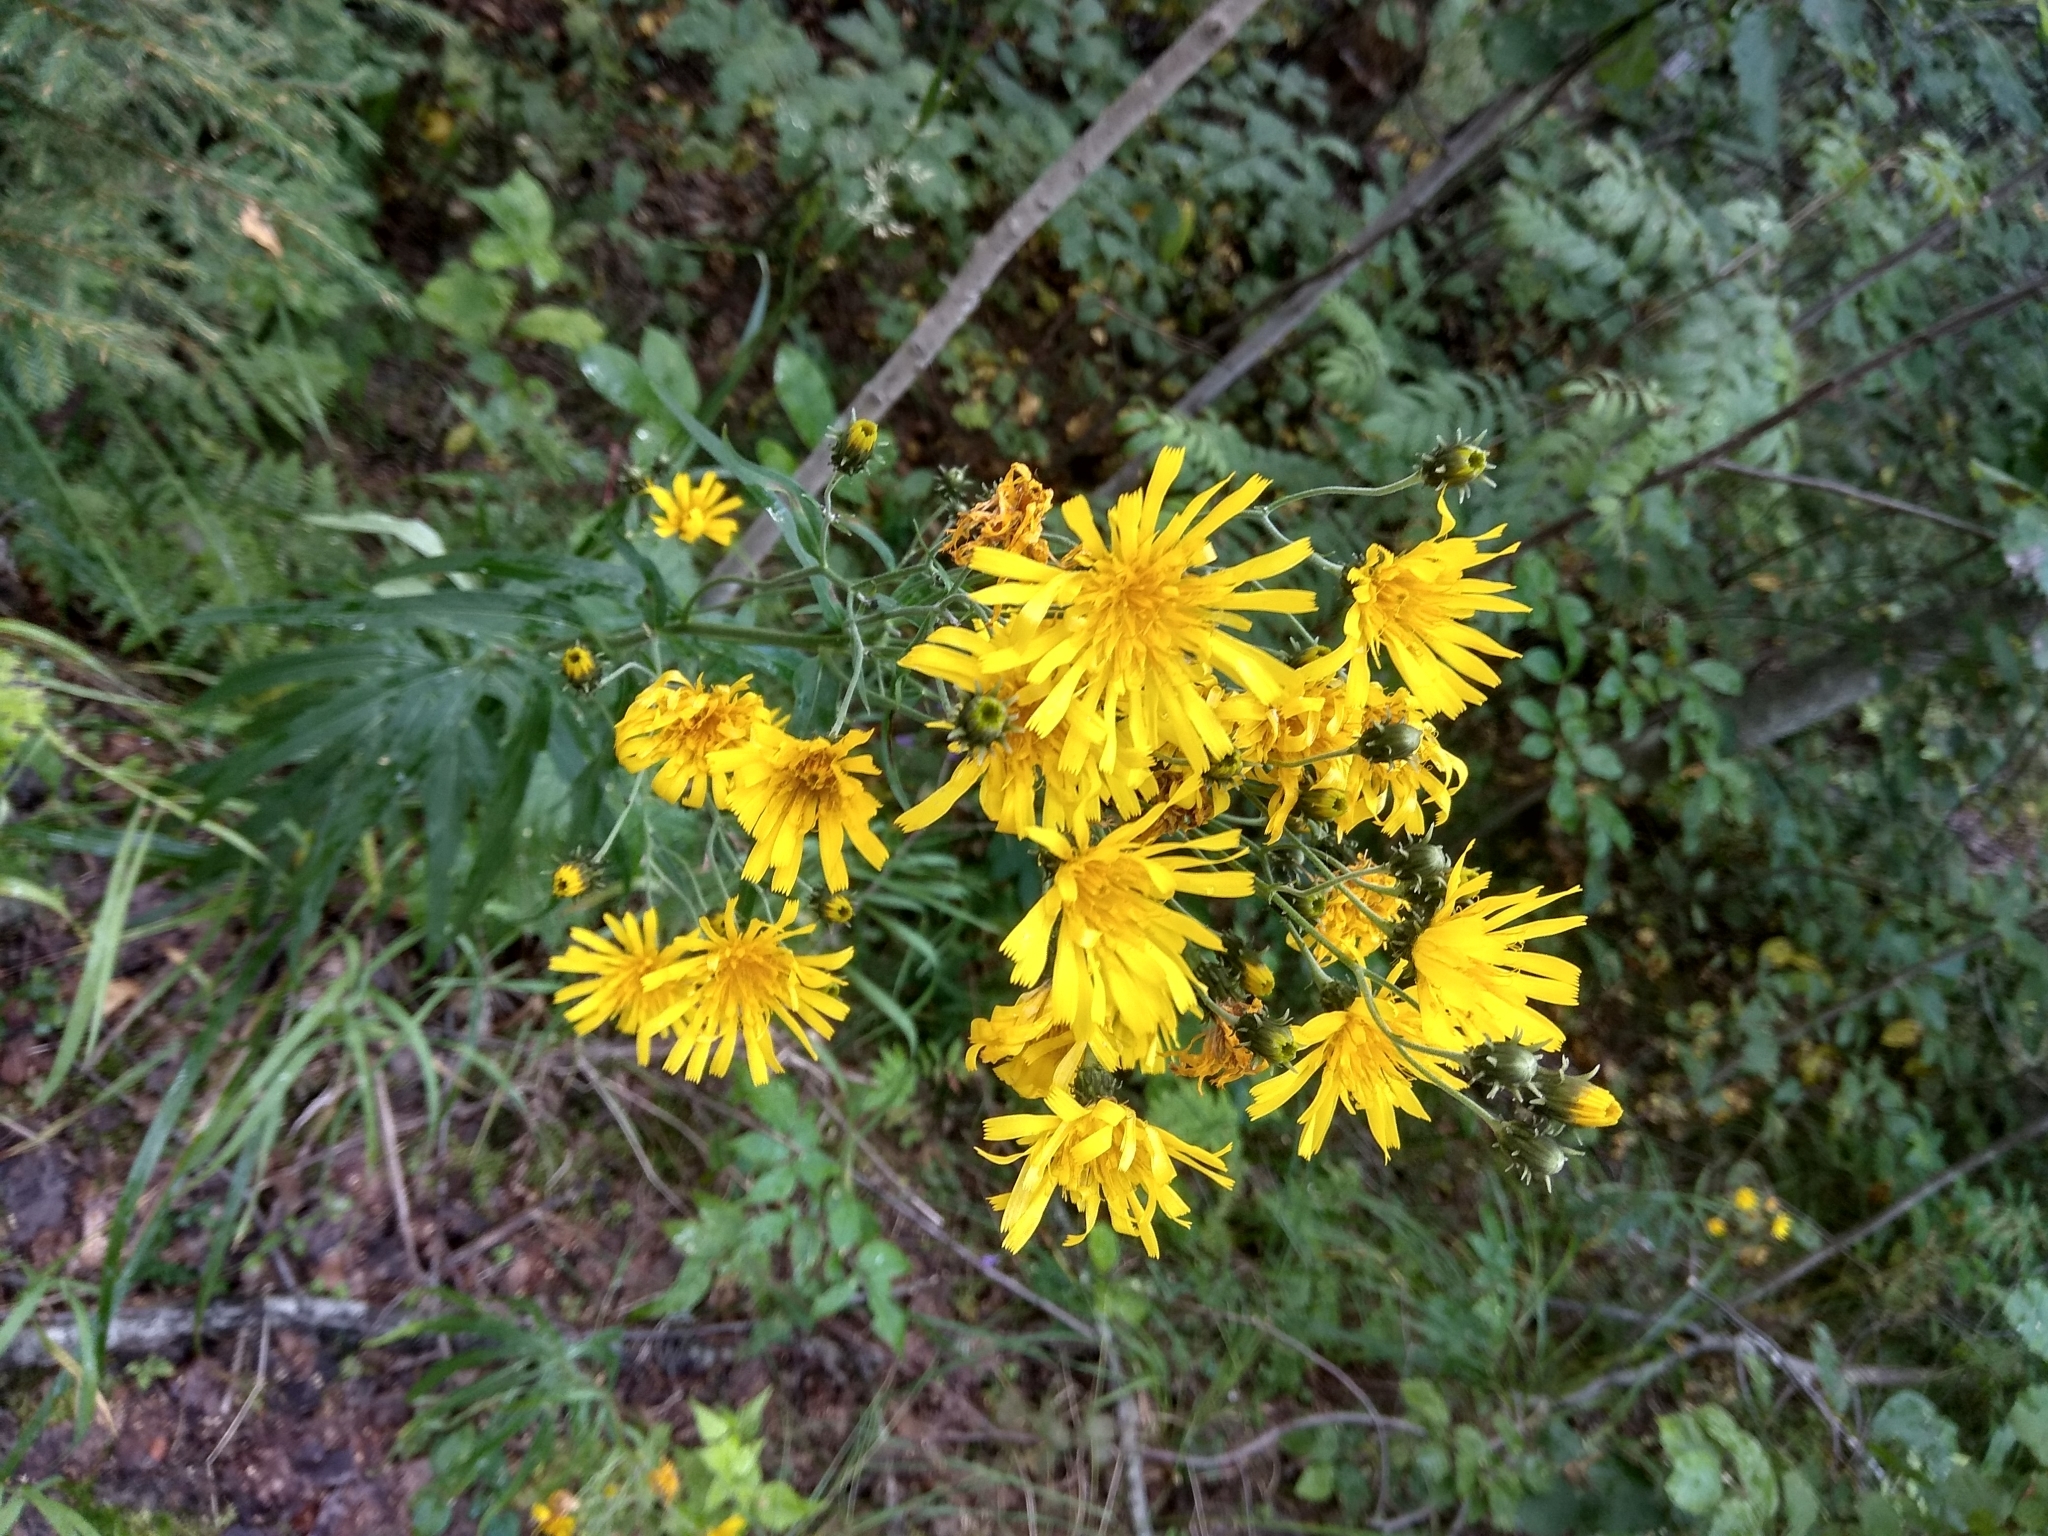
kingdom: Plantae
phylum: Tracheophyta
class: Magnoliopsida
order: Asterales
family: Asteraceae
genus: Hieracium
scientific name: Hieracium umbellatum
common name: Northern hawkweed
